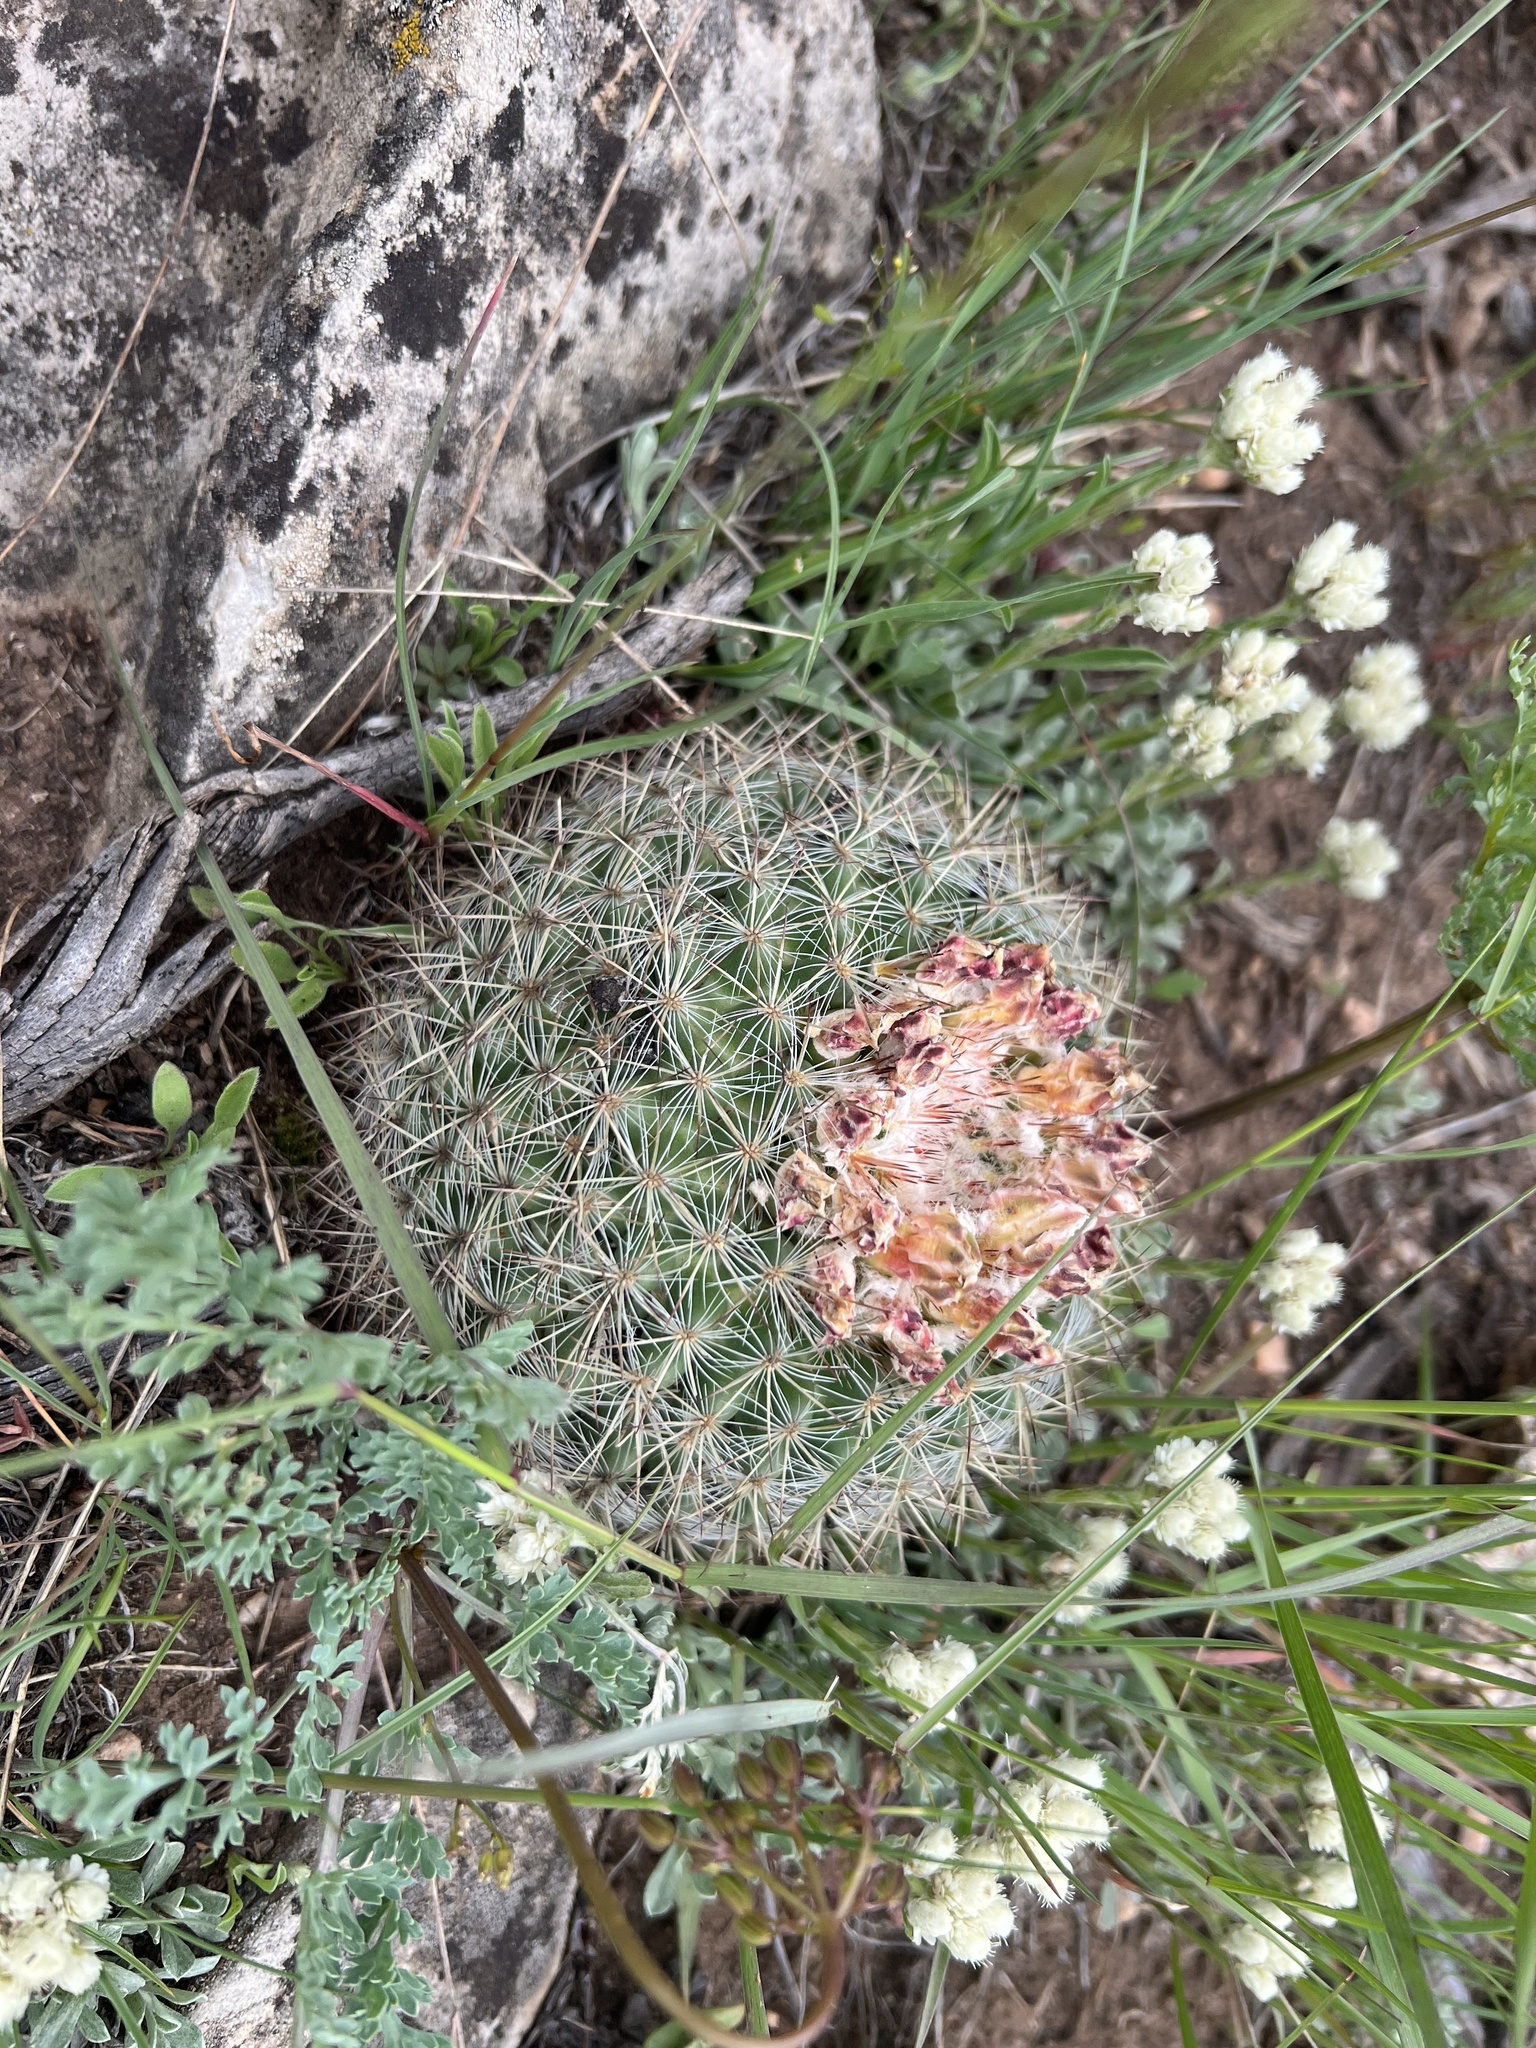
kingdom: Plantae
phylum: Tracheophyta
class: Magnoliopsida
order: Caryophyllales
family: Cactaceae
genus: Pediocactus
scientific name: Pediocactus simpsonii
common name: Simpson's hedgehog cactus
